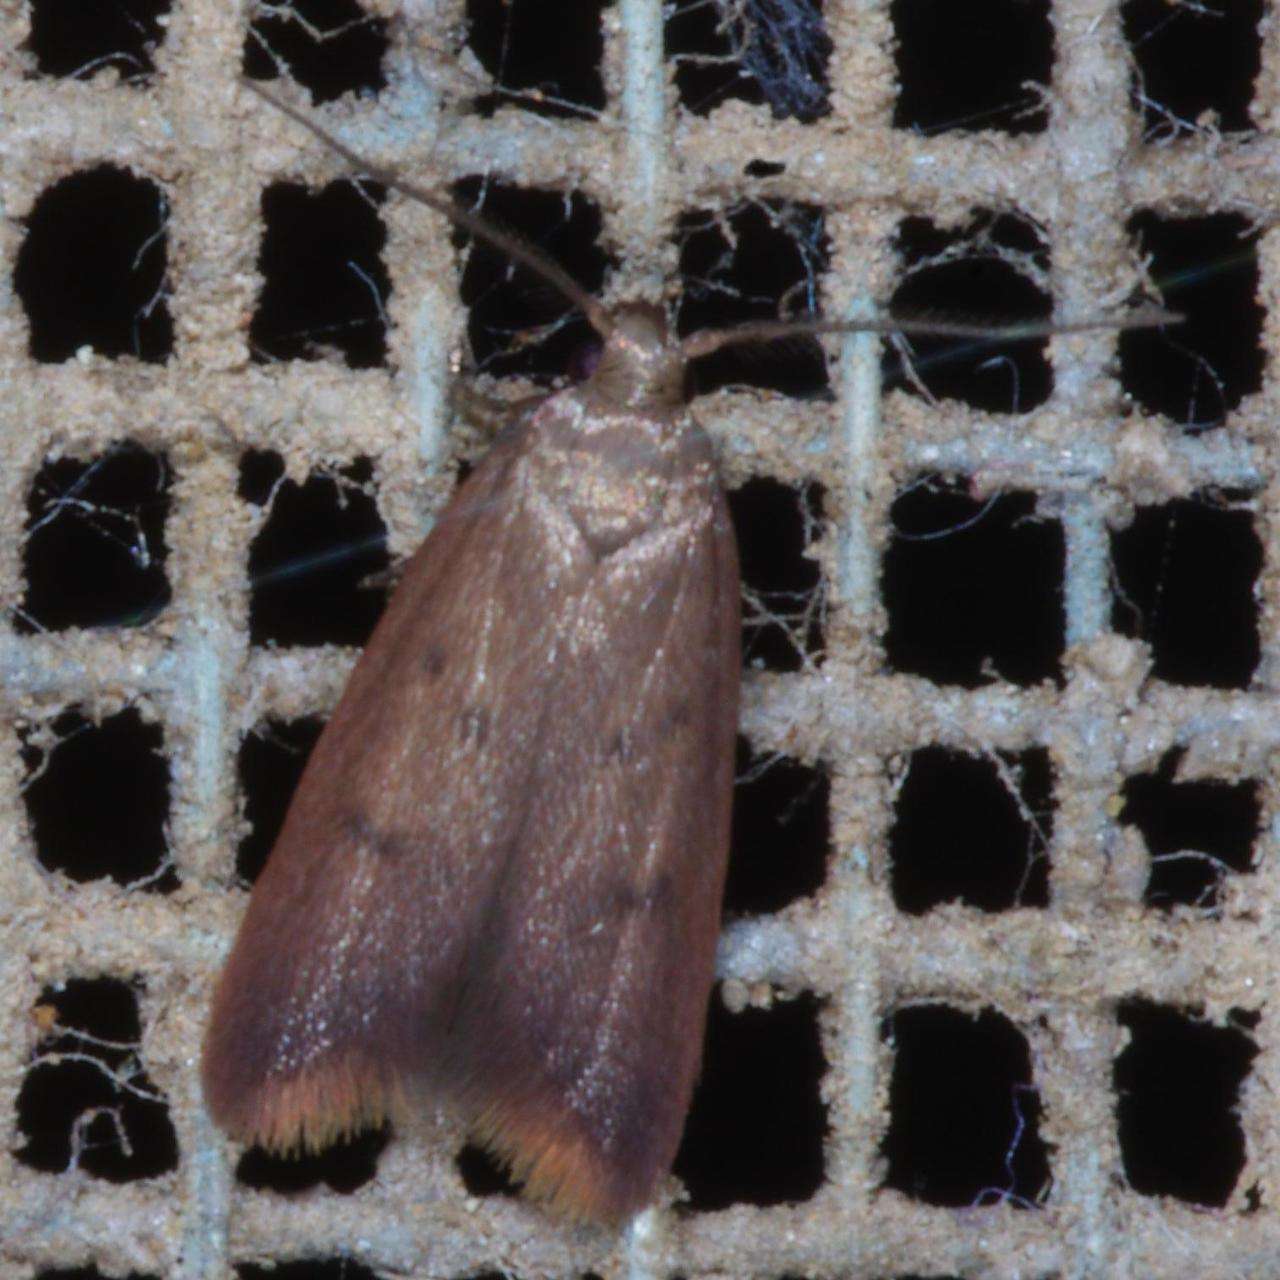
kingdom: Animalia
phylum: Arthropoda
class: Insecta
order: Lepidoptera
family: Oecophoridae
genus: Tachystola
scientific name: Tachystola acroxantha
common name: Ruddy streak
